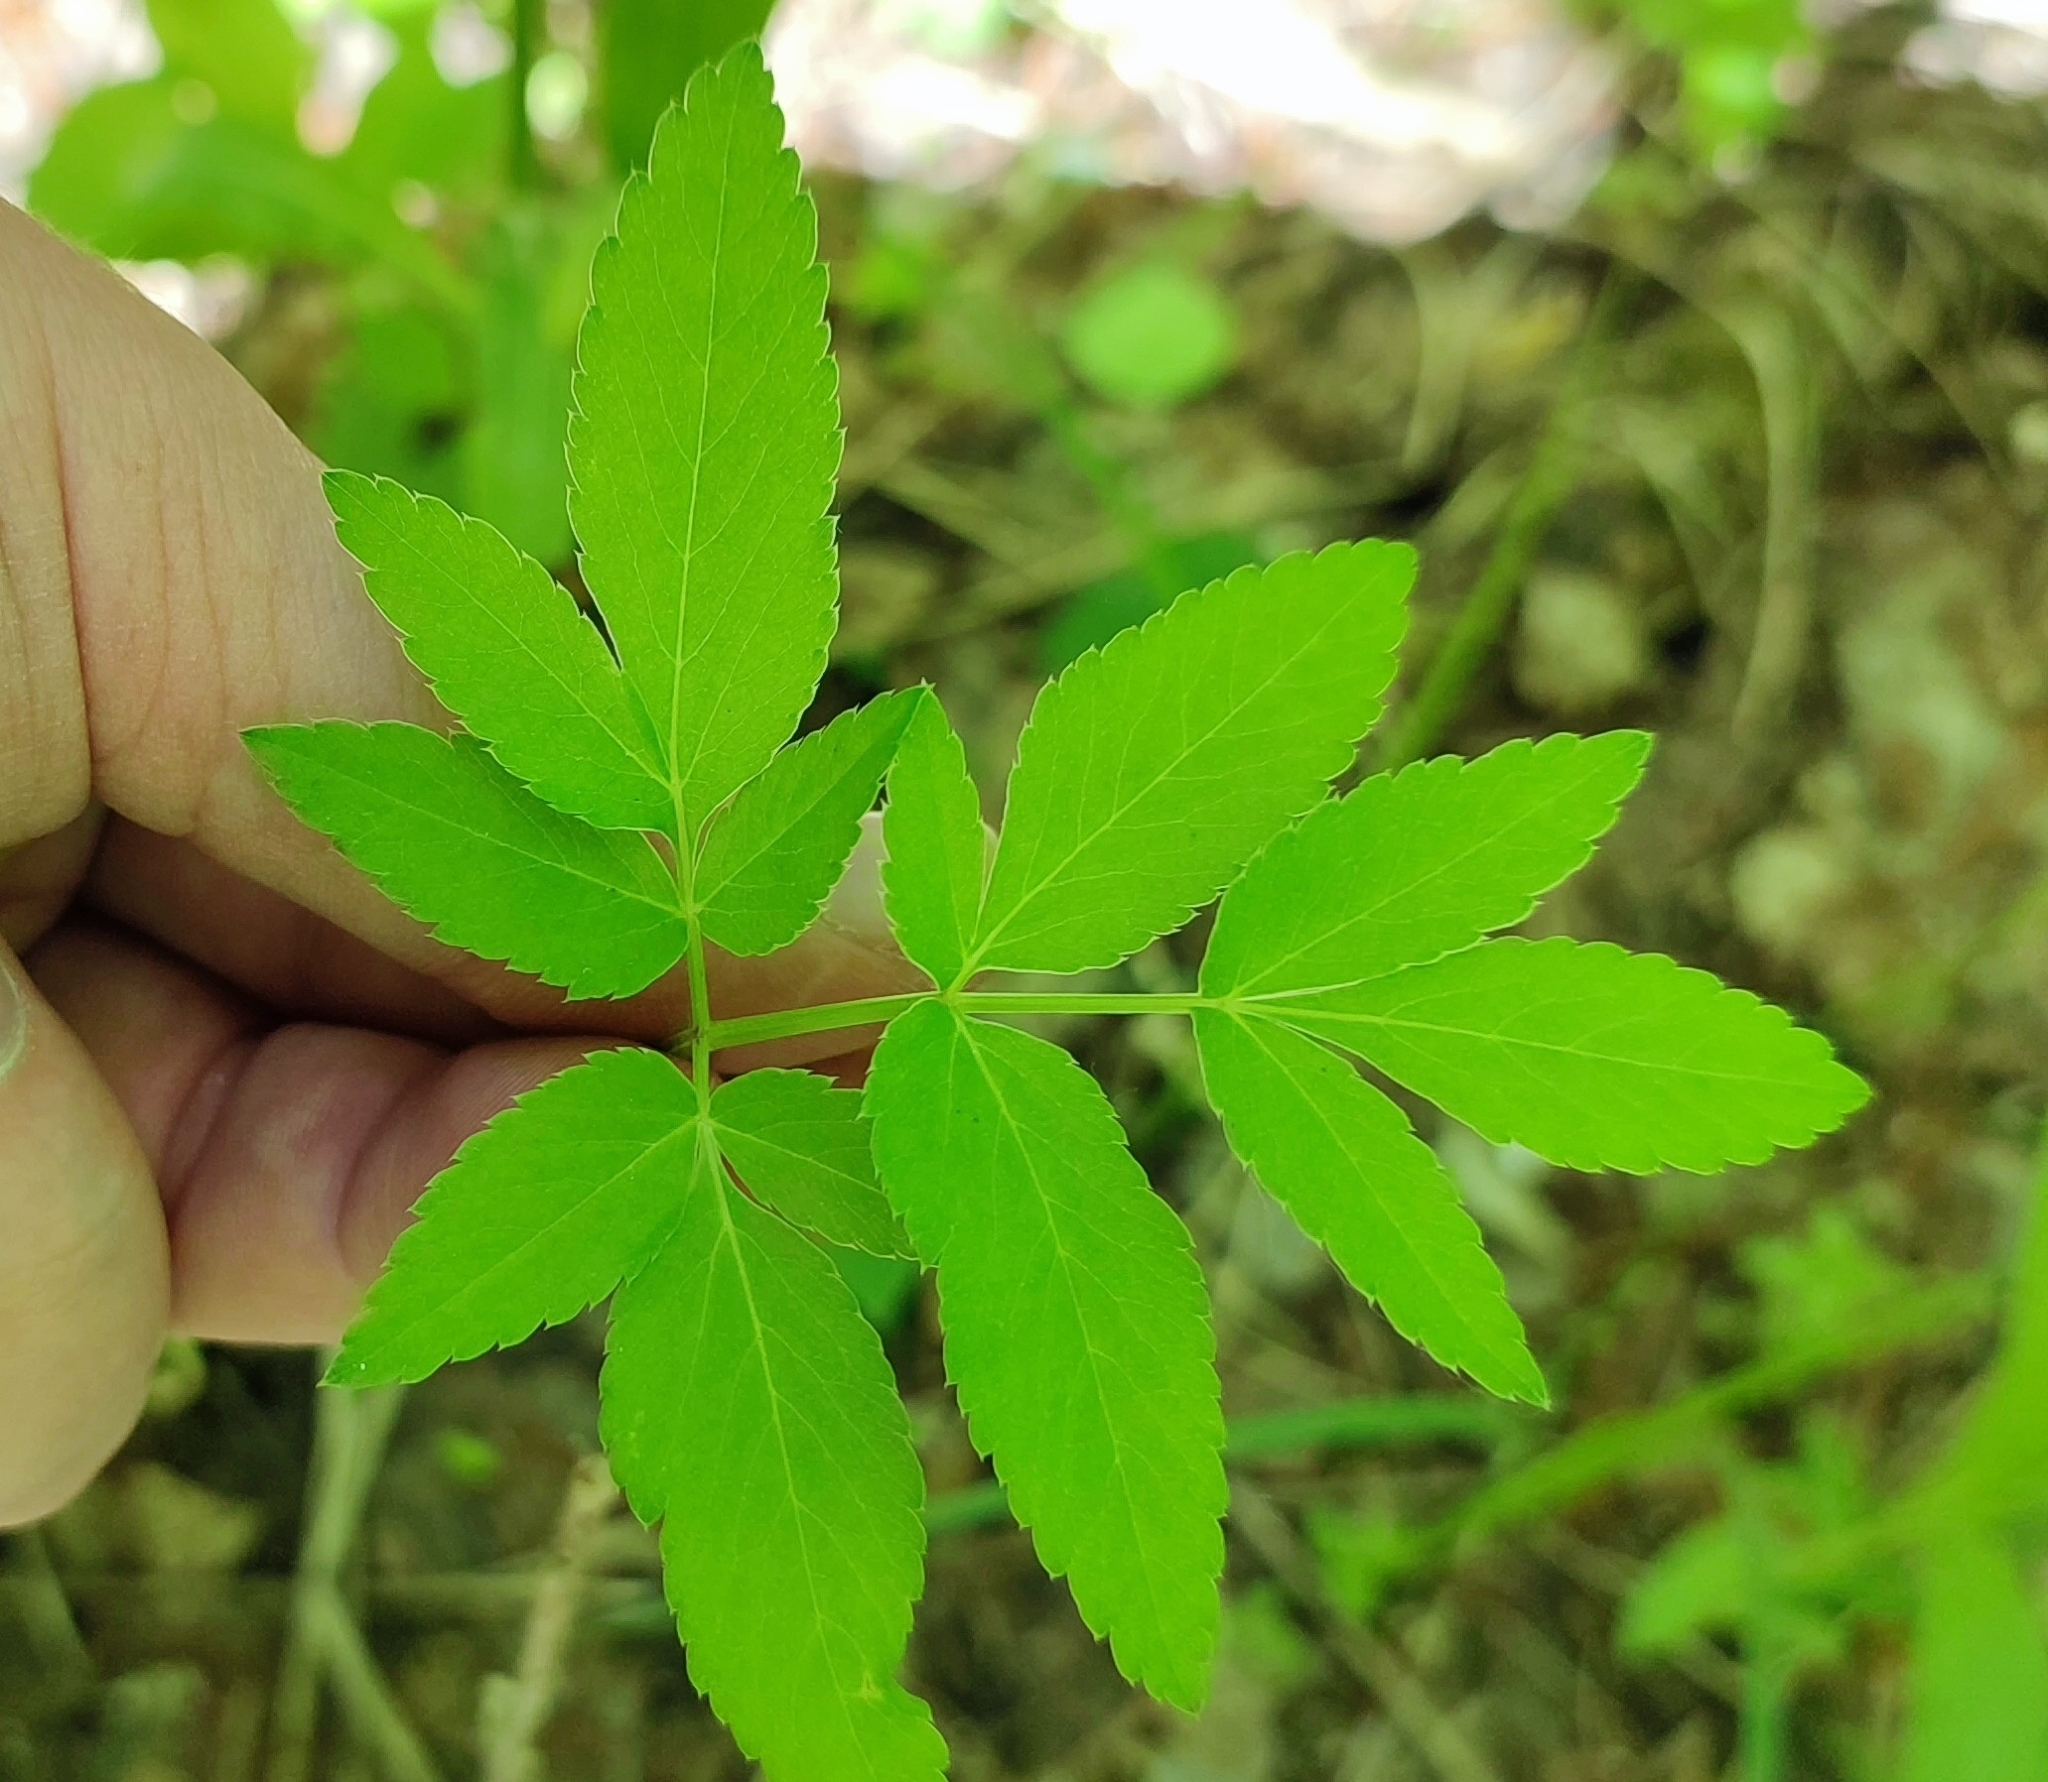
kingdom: Plantae
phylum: Tracheophyta
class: Magnoliopsida
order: Apiales
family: Apiaceae
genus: Aegopodium
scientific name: Aegopodium podagraria
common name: Ground-elder
